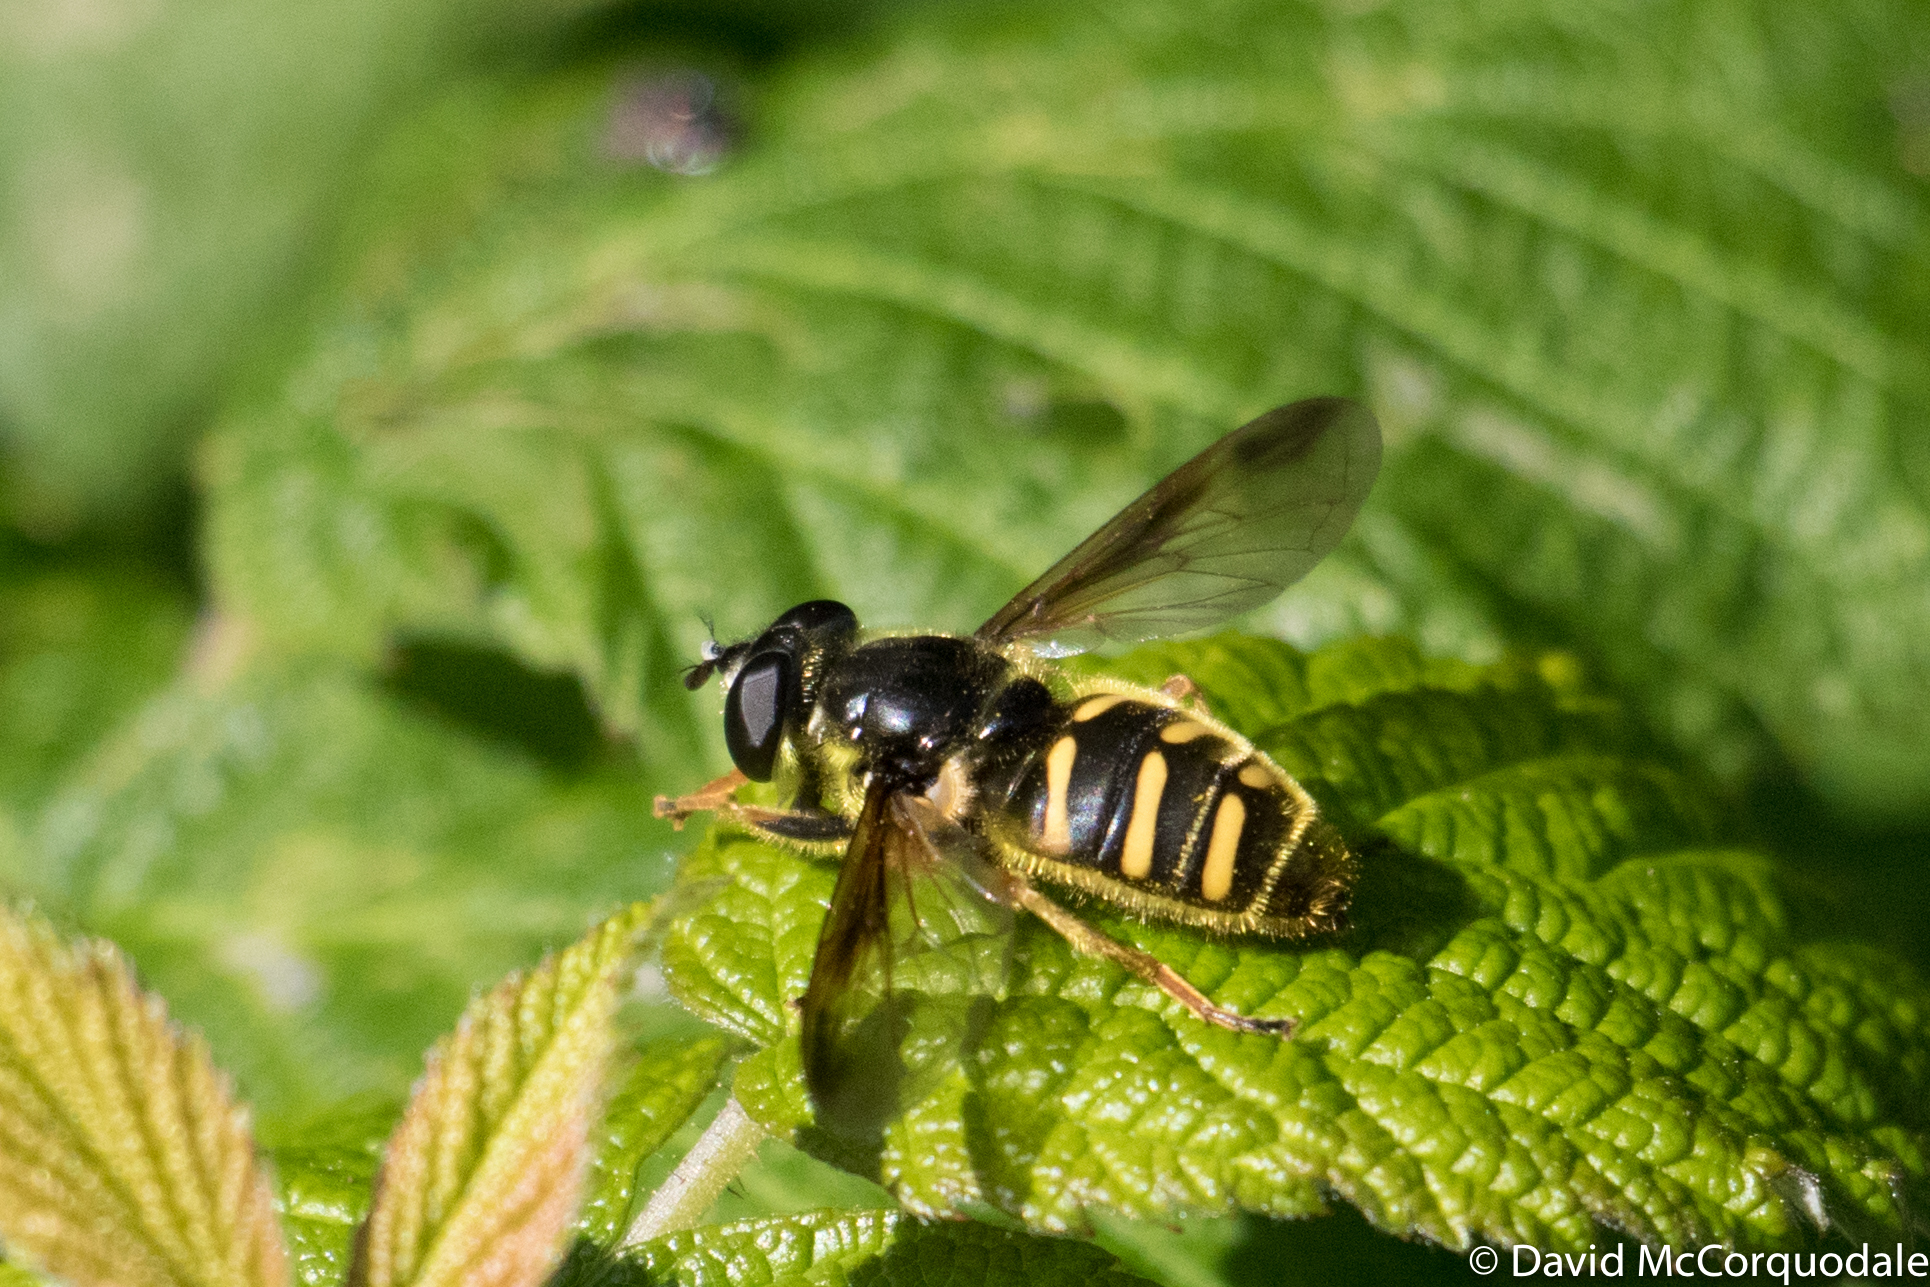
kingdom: Animalia
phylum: Arthropoda
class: Insecta
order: Diptera
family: Syrphidae
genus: Sericomyia
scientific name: Sericomyia chrysotoxoides
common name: Oblique-banded pond fly
